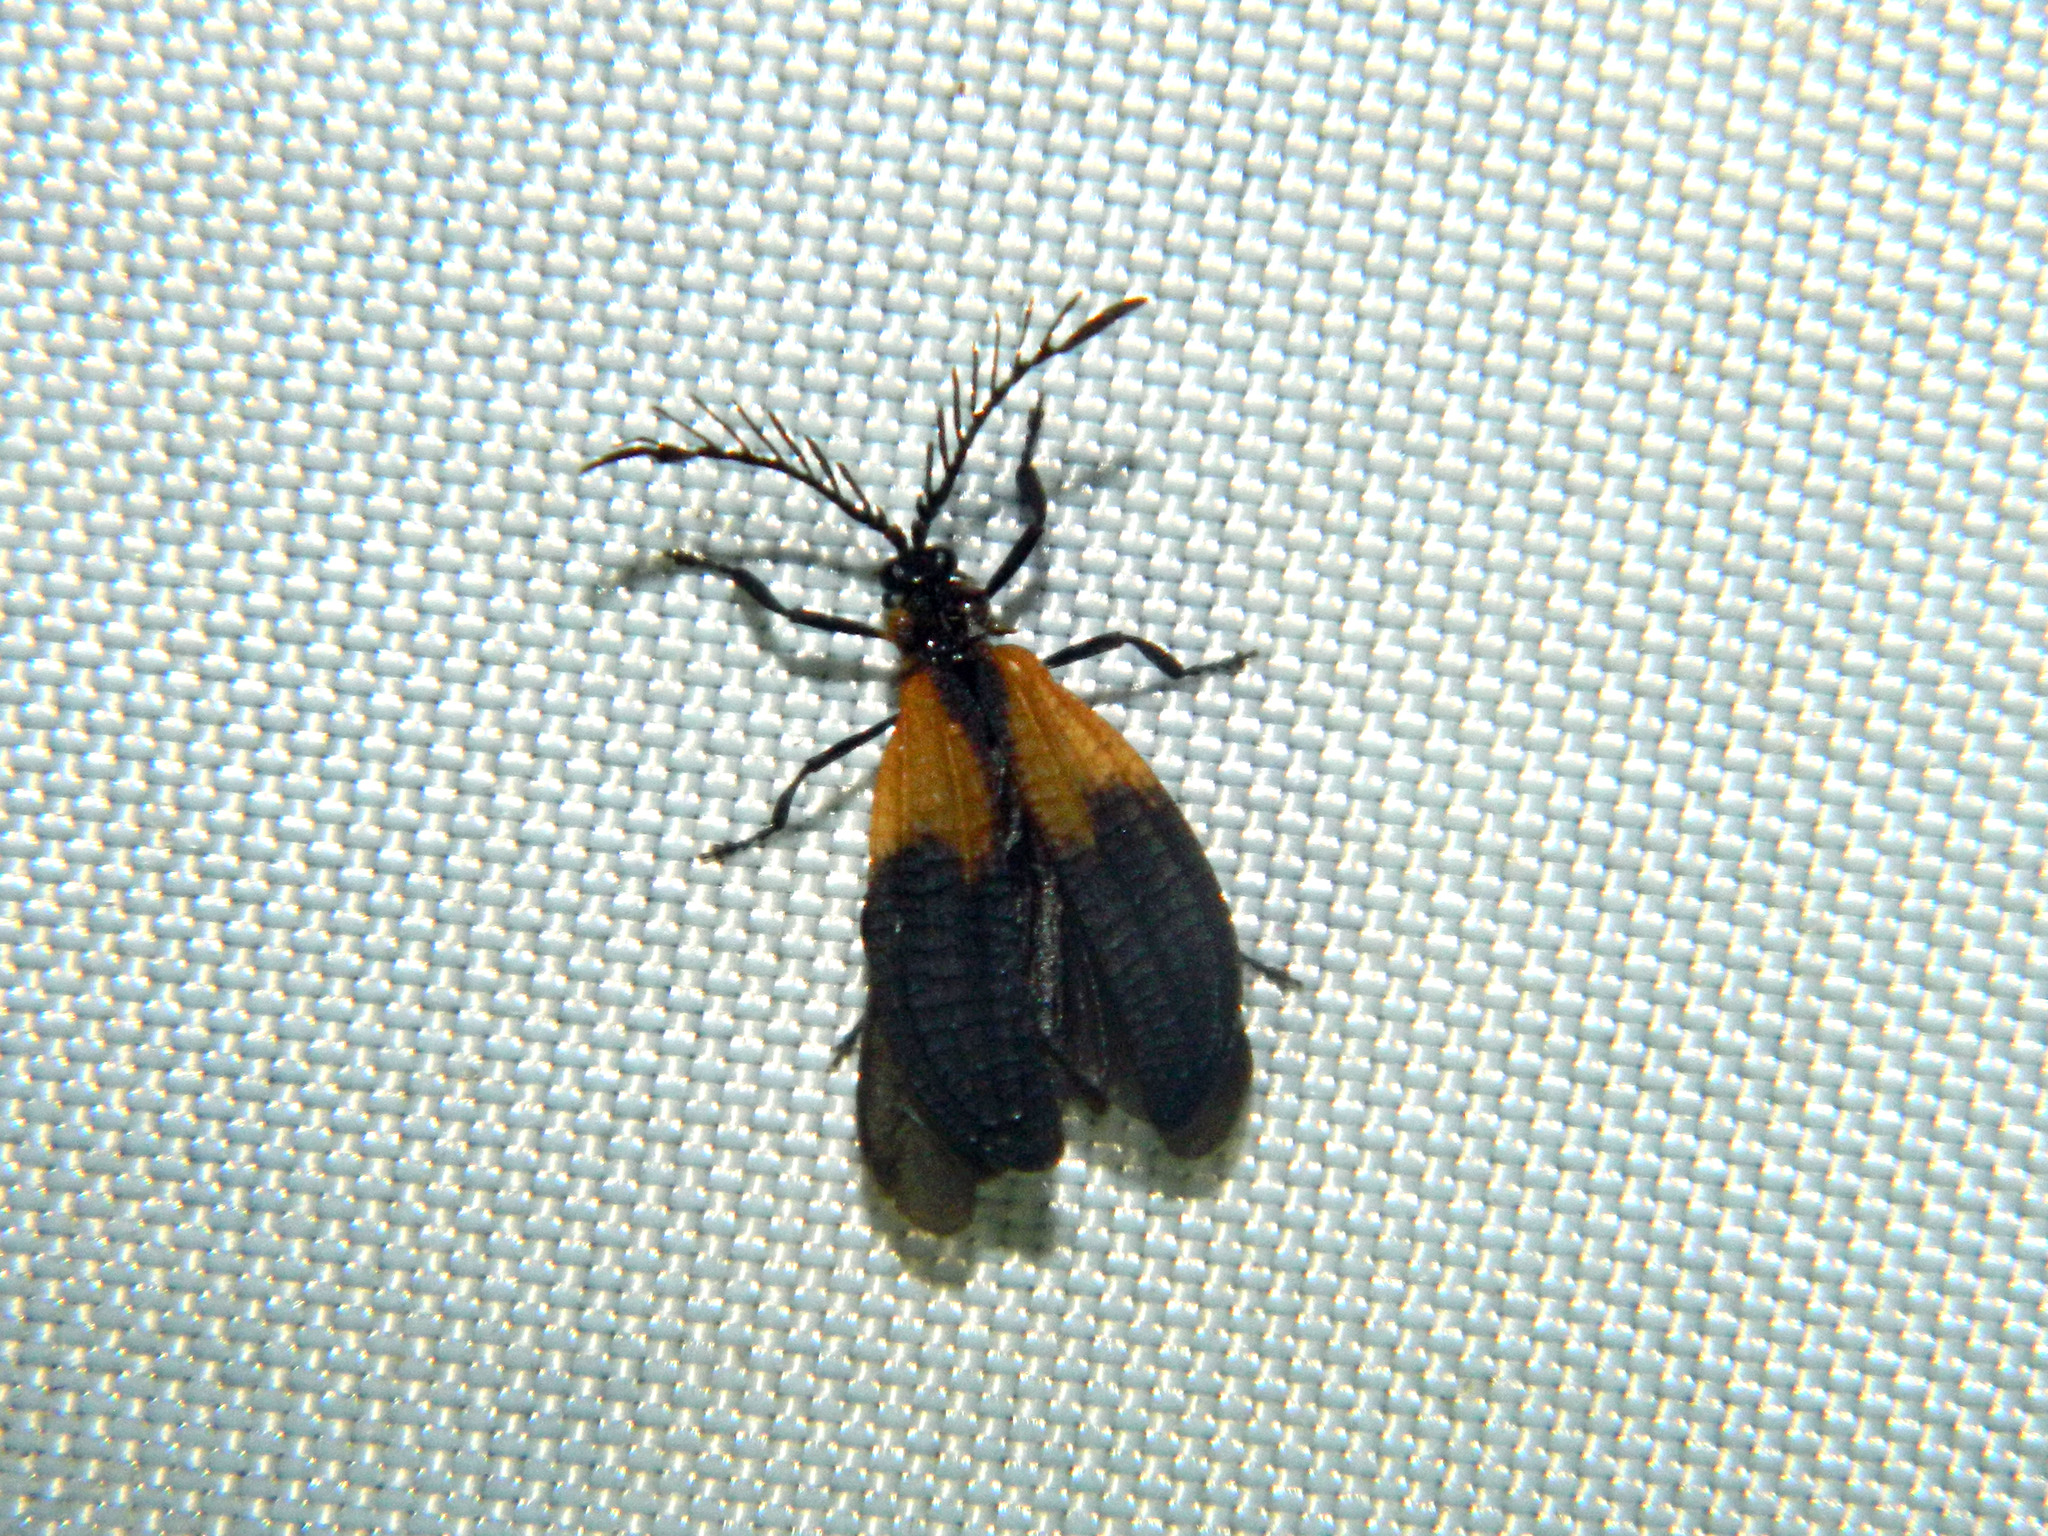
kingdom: Animalia
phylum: Arthropoda
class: Insecta
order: Coleoptera
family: Lycidae
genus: Caenia
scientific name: Caenia dimidiata
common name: Terminal net-winged beetle
